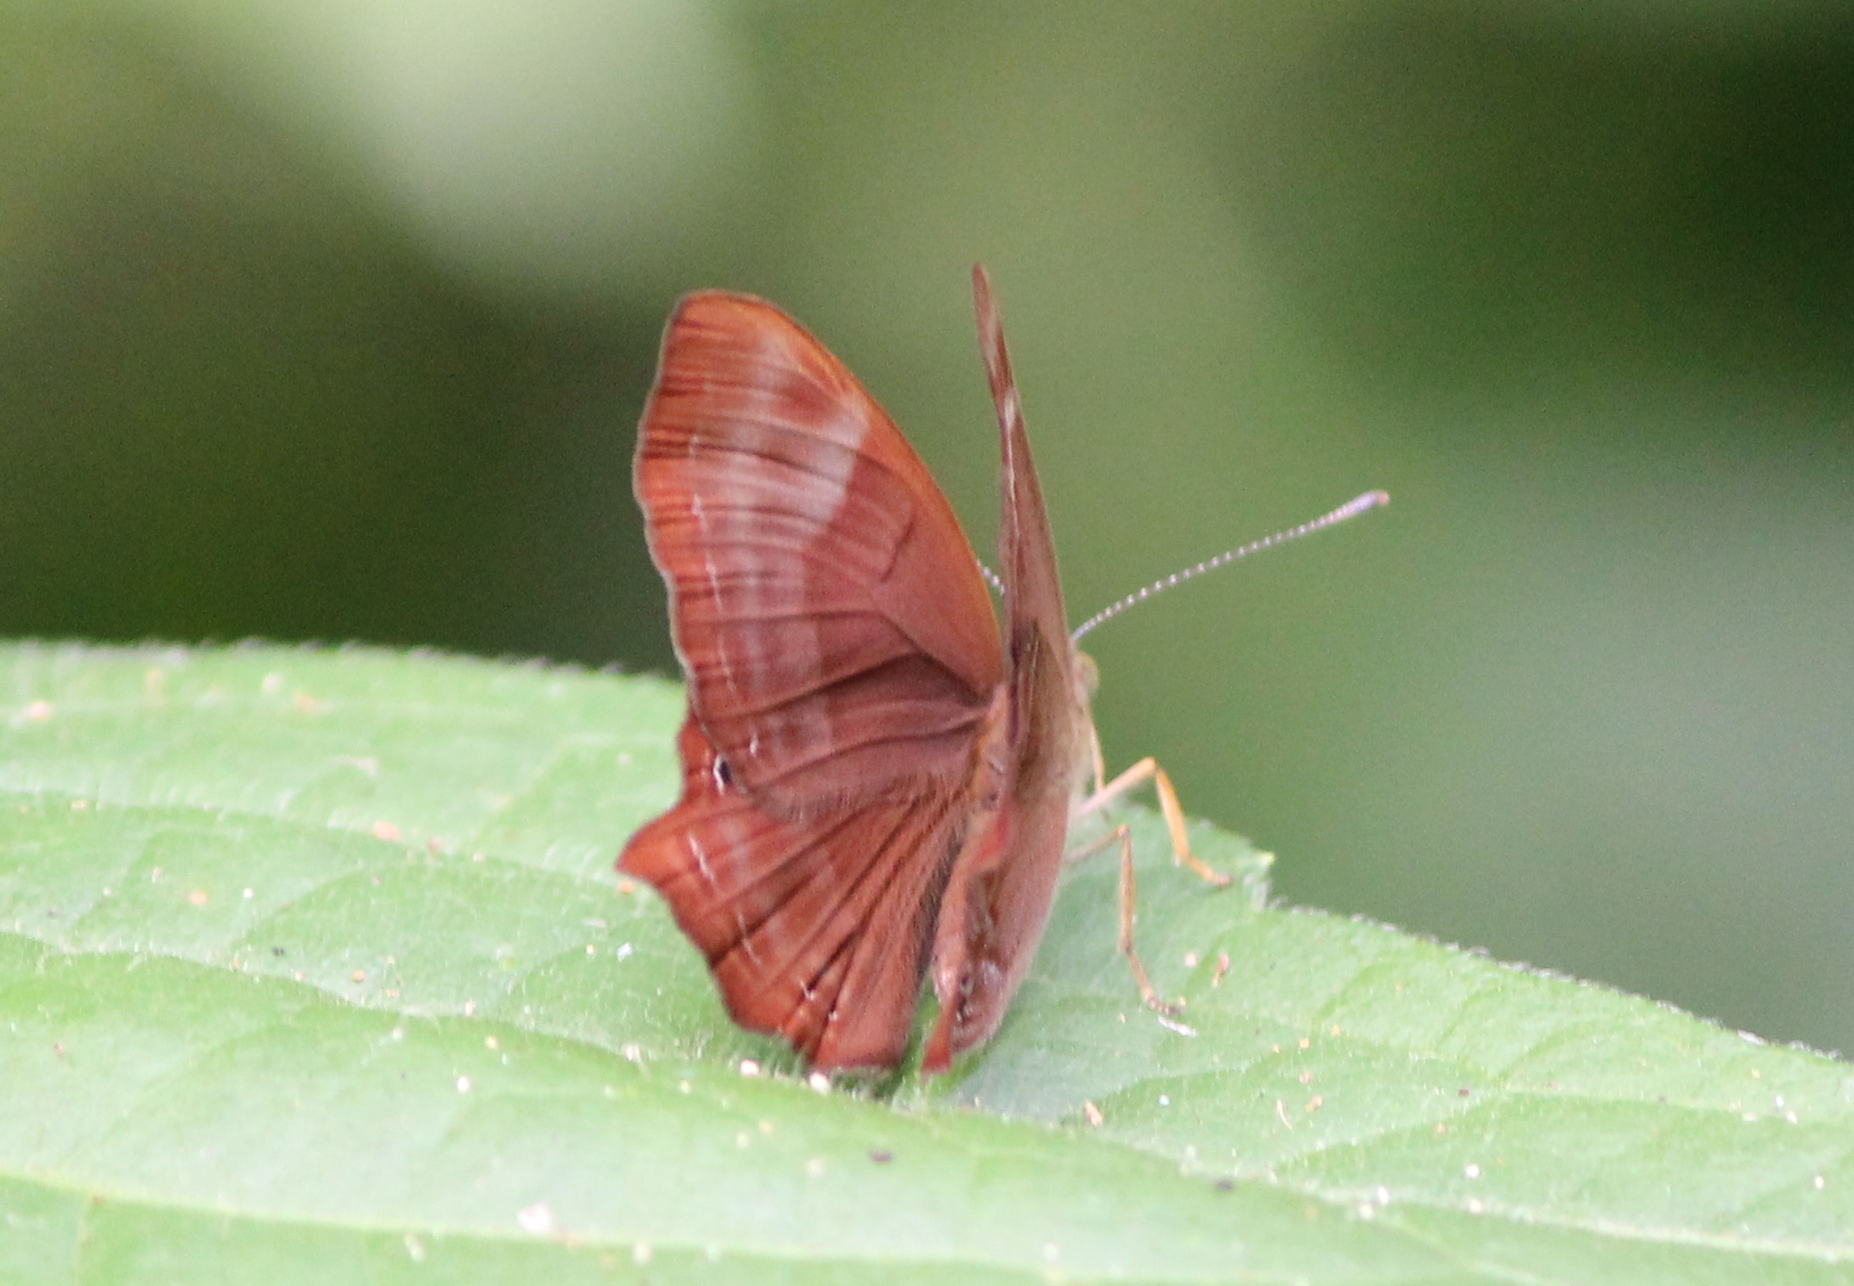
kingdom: Animalia
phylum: Arthropoda
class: Insecta
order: Lepidoptera
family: Lycaenidae
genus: Abisara
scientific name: Abisara bifasciata
